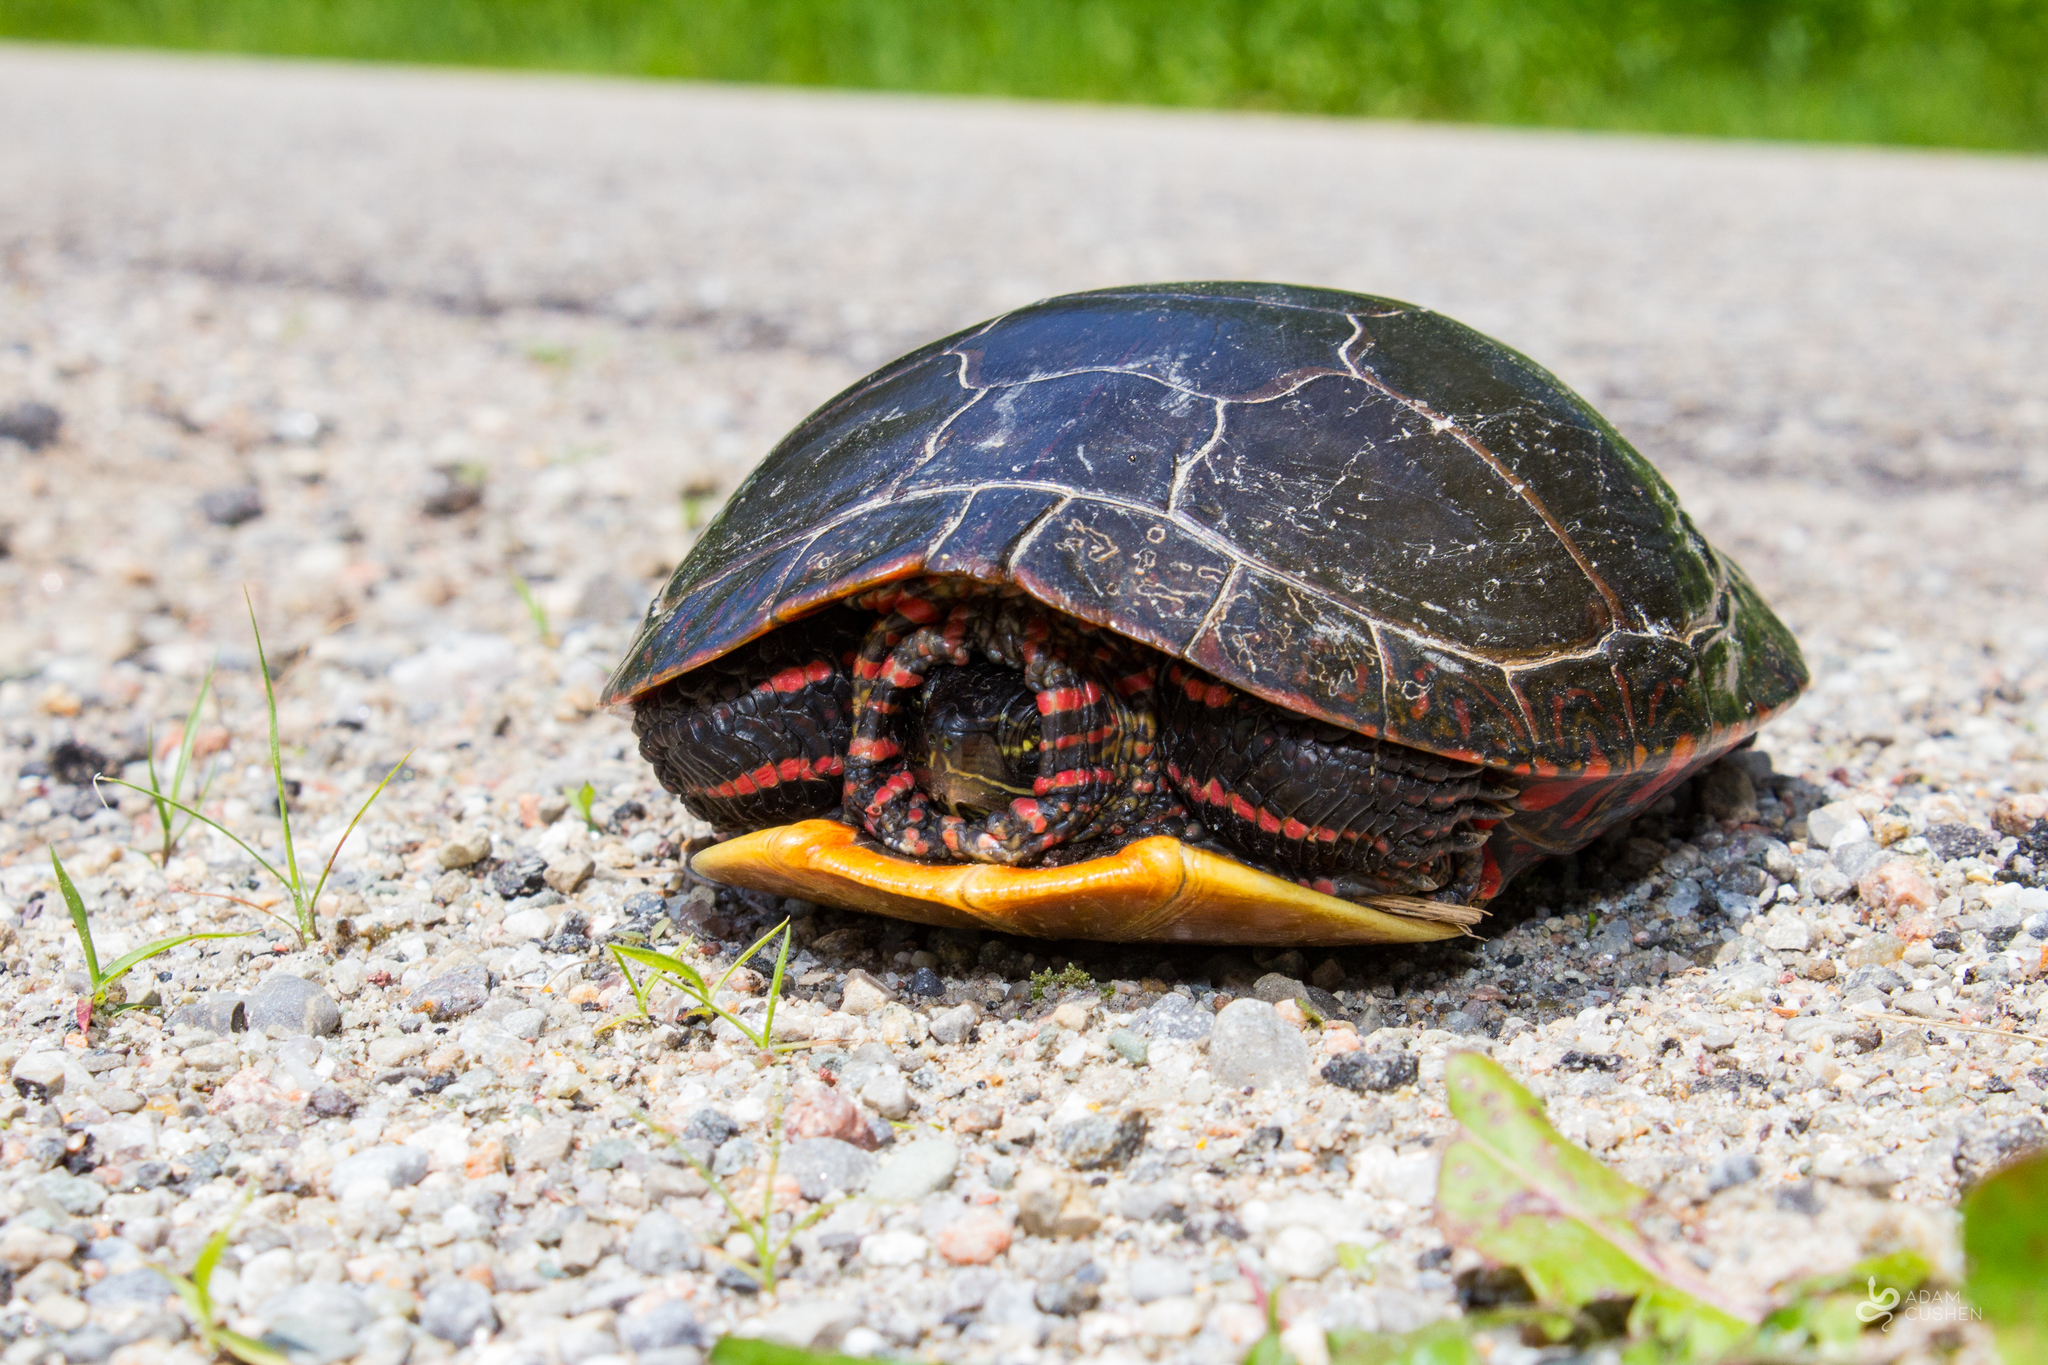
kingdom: Animalia
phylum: Chordata
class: Testudines
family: Emydidae
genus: Chrysemys
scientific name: Chrysemys picta
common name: Painted turtle
